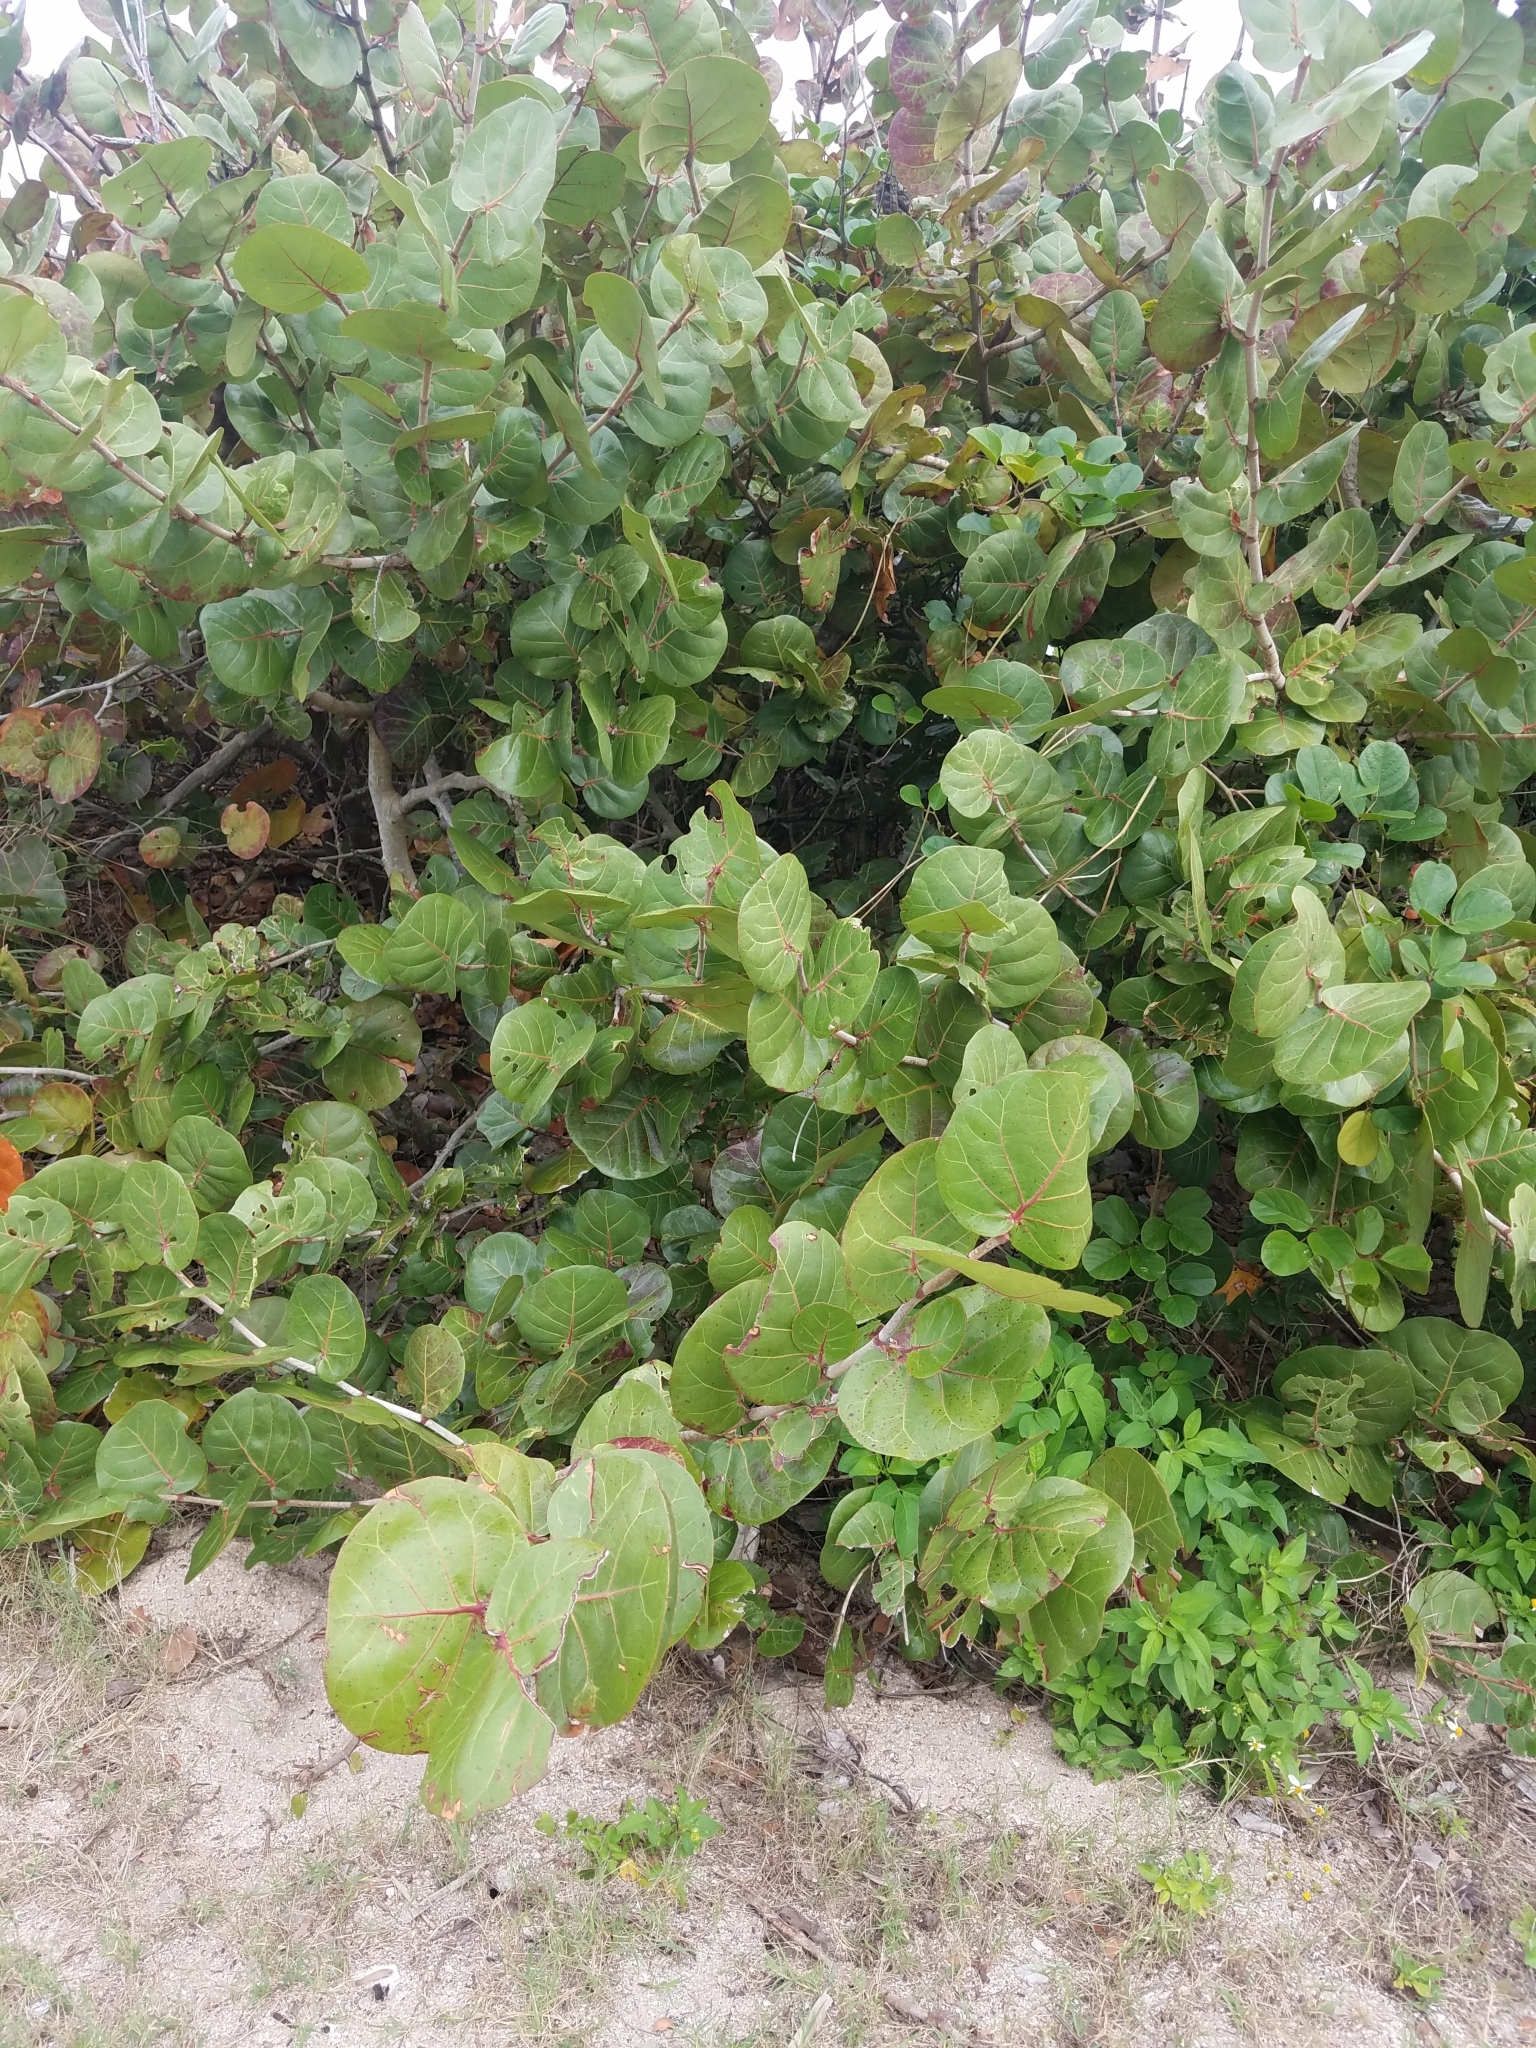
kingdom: Plantae
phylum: Tracheophyta
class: Magnoliopsida
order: Caryophyllales
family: Polygonaceae
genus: Coccoloba
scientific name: Coccoloba uvifera
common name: Seagrape
